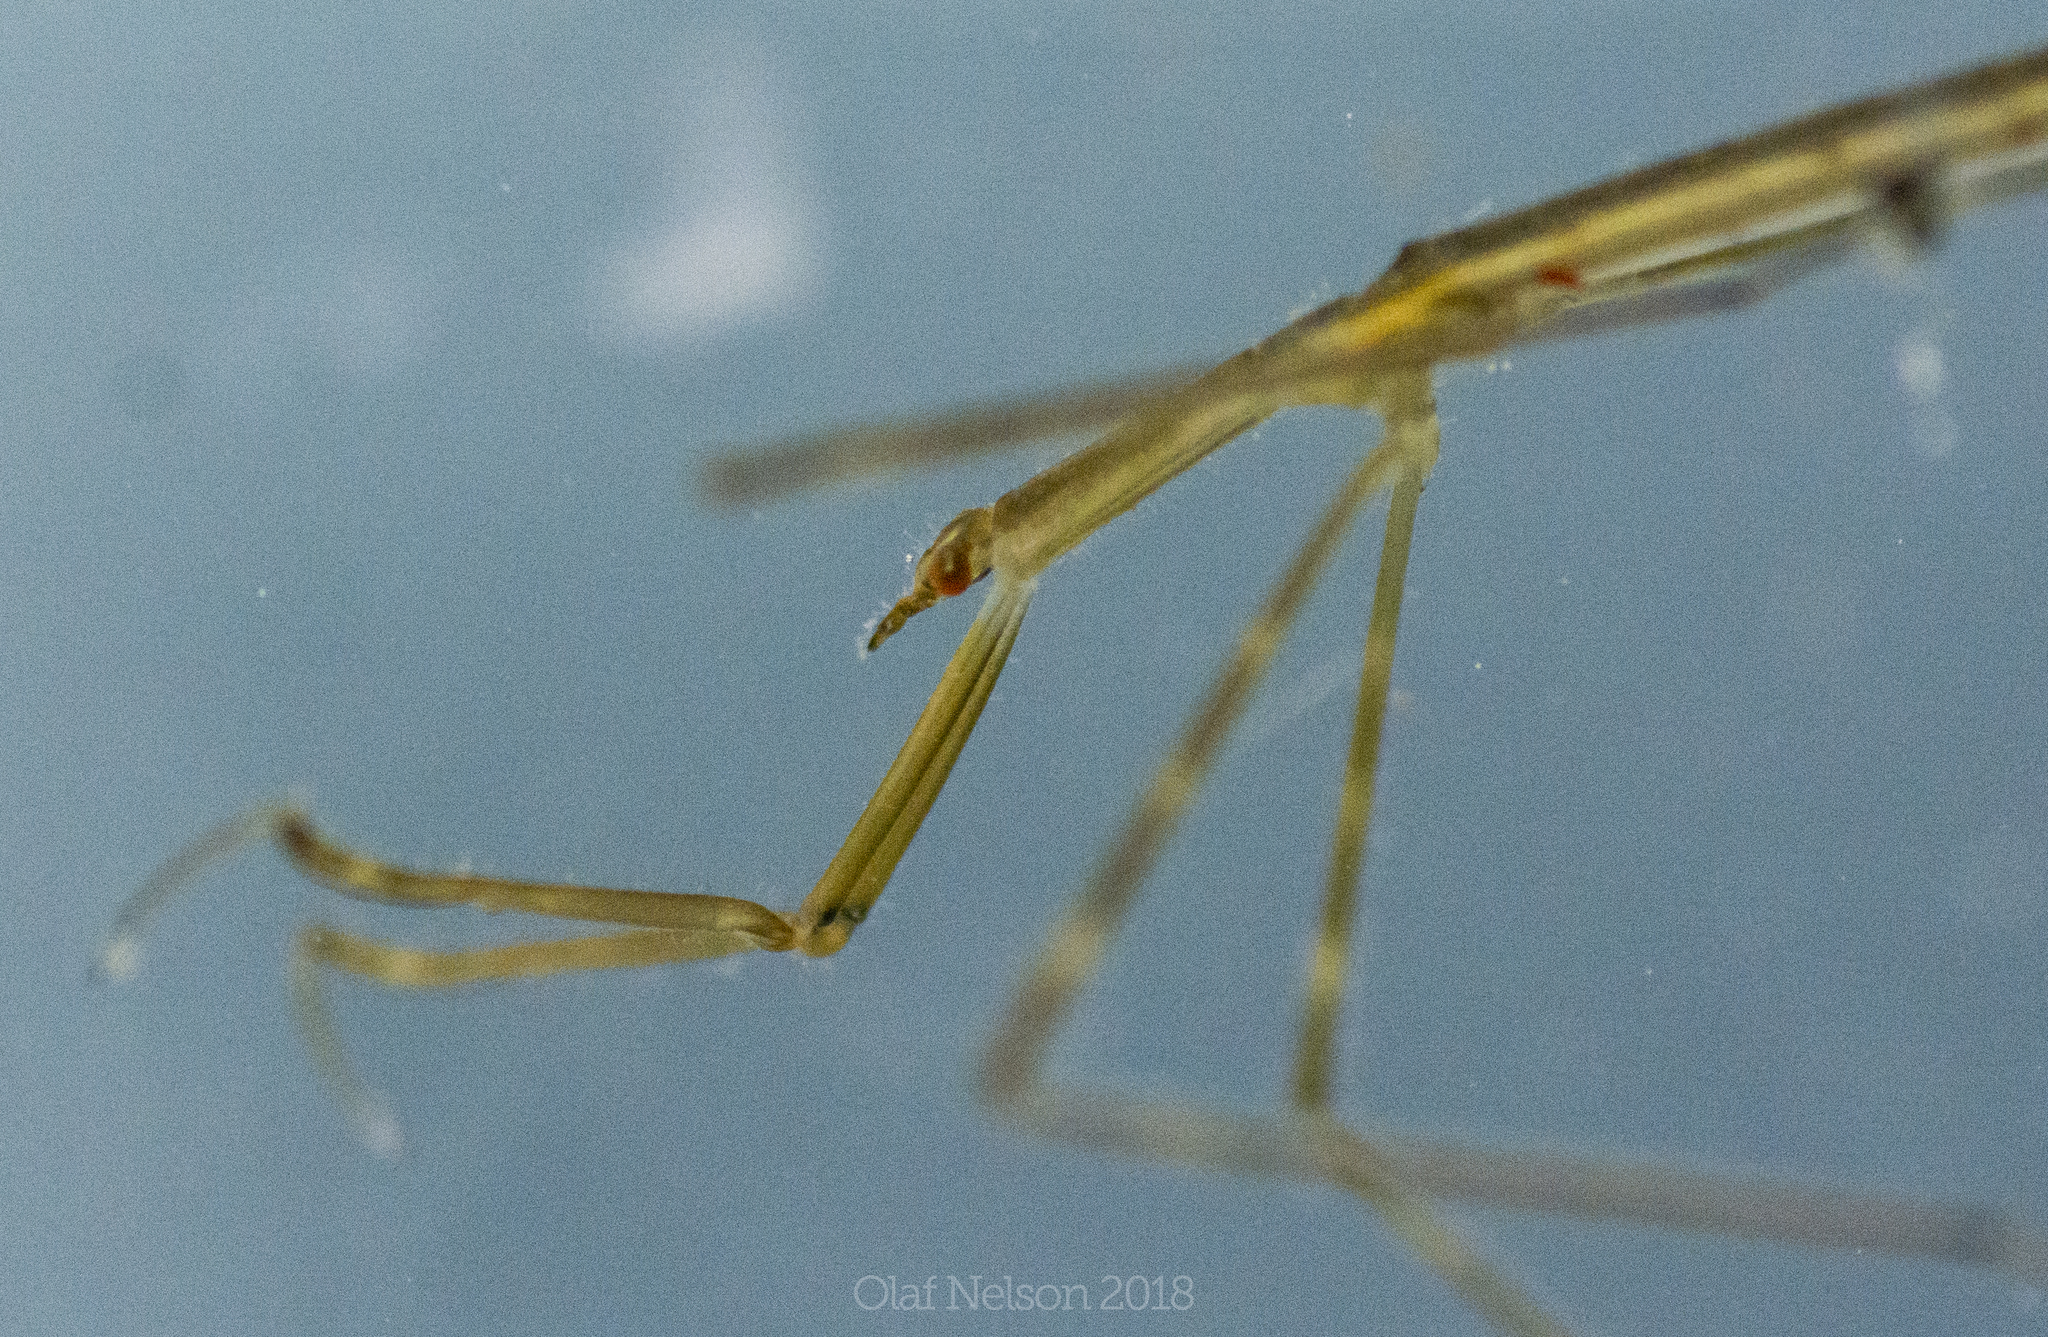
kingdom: Animalia
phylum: Arthropoda
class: Insecta
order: Hemiptera
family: Nepidae
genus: Ranatra
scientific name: Ranatra
